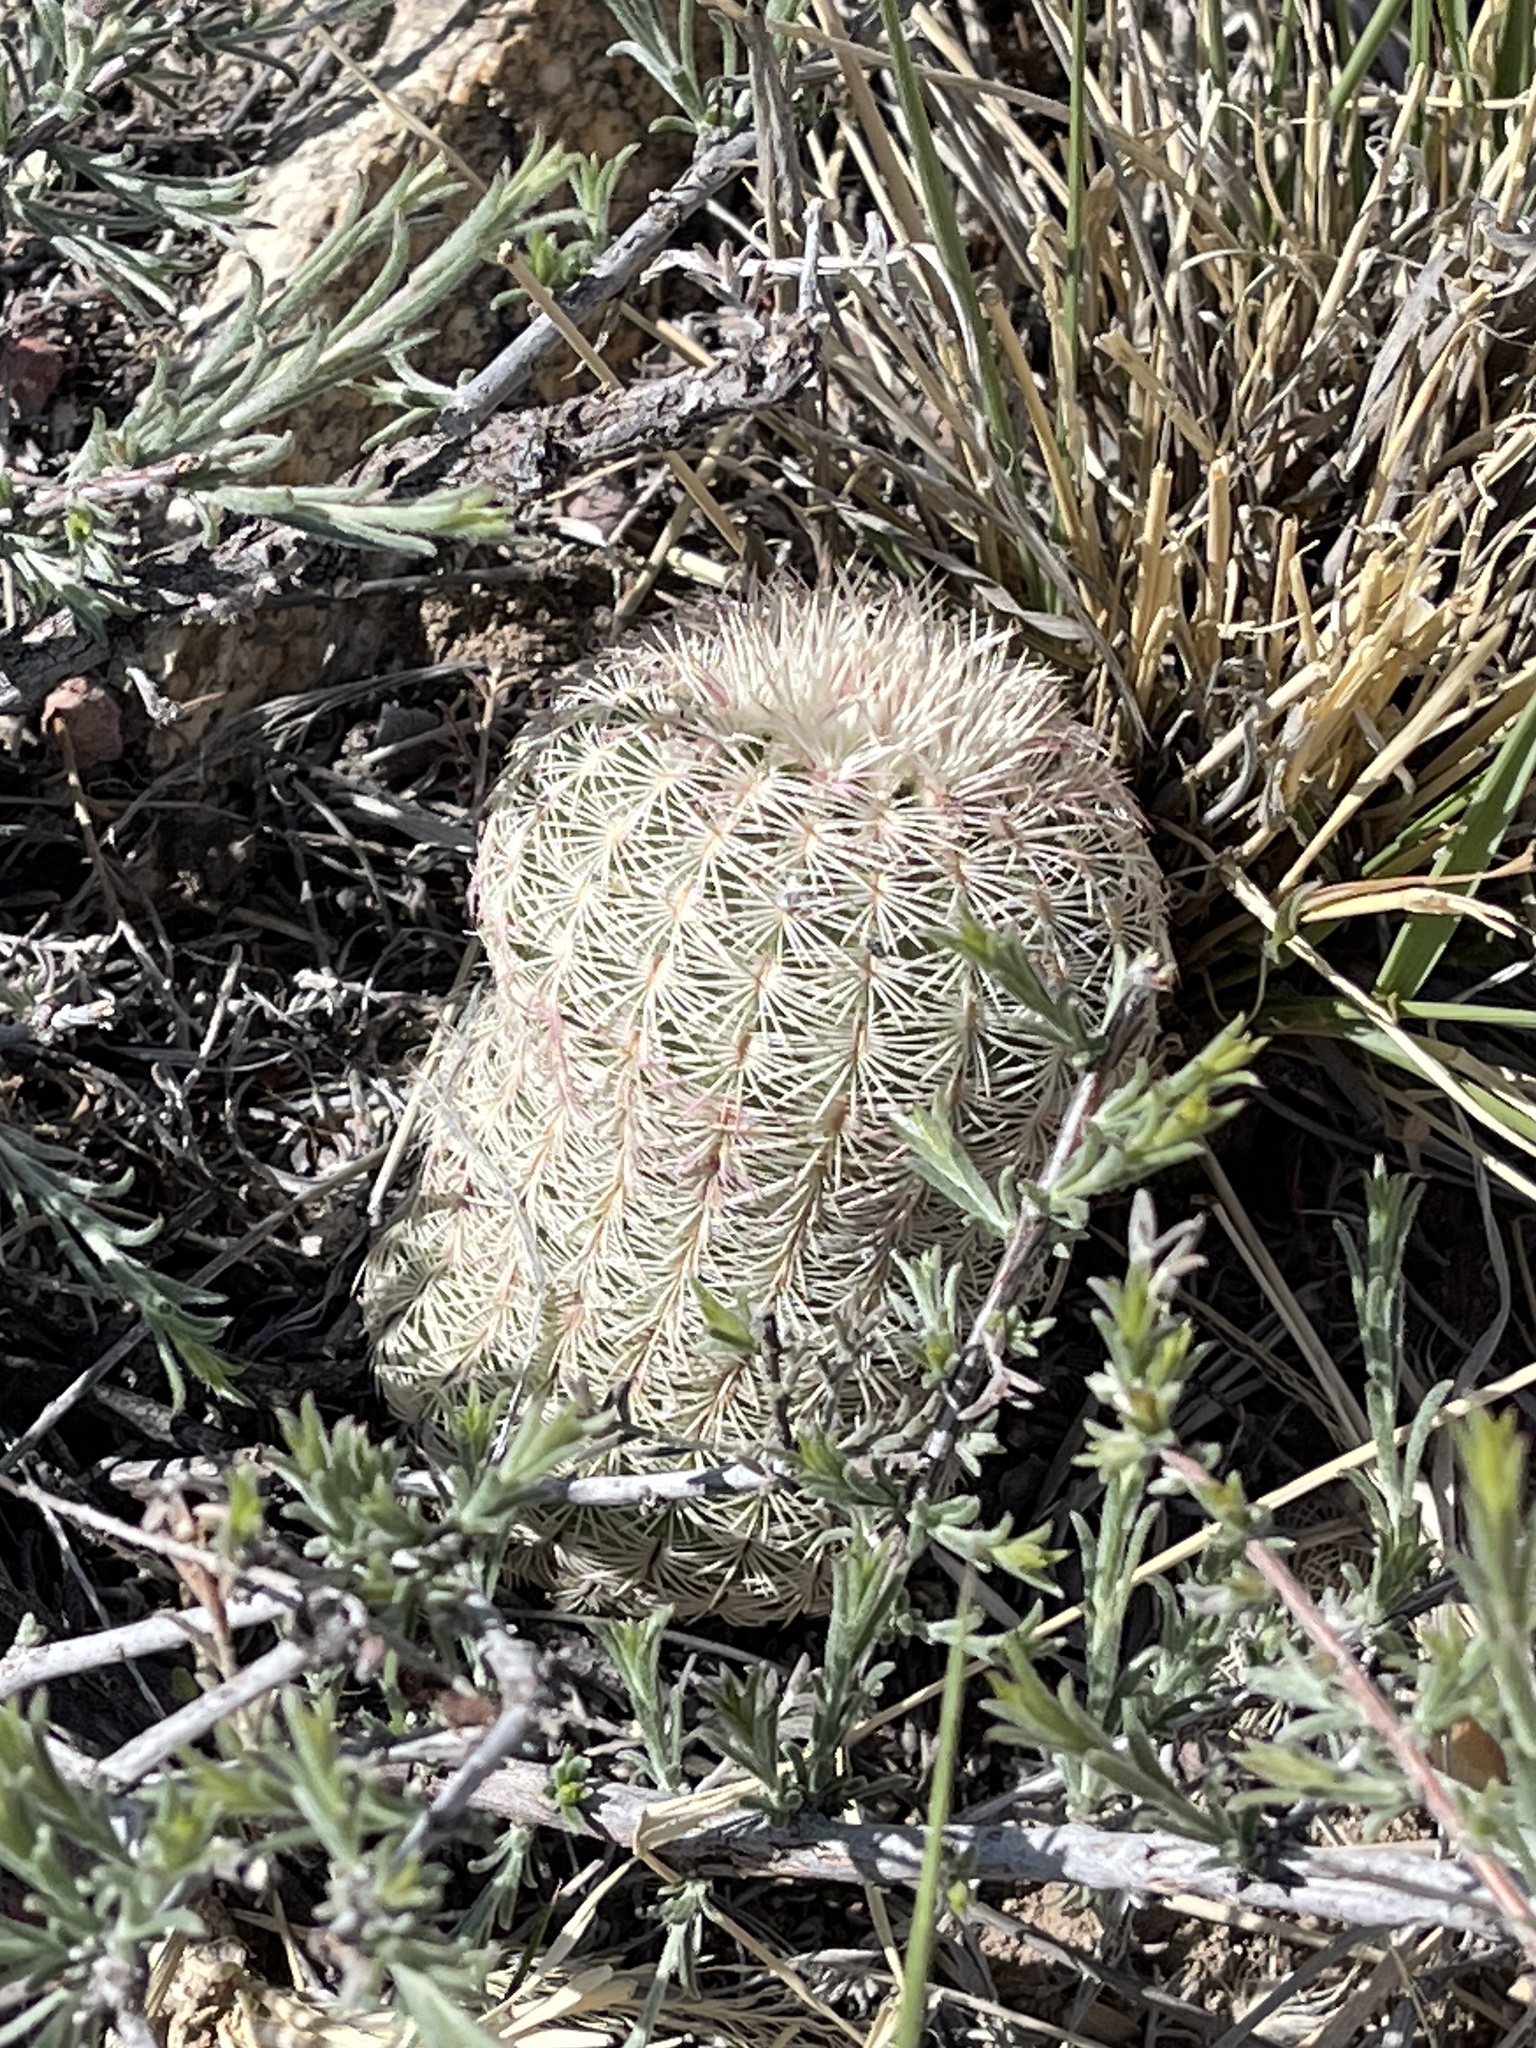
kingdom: Plantae
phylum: Tracheophyta
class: Magnoliopsida
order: Caryophyllales
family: Cactaceae
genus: Echinocereus
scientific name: Echinocereus rigidissimus
